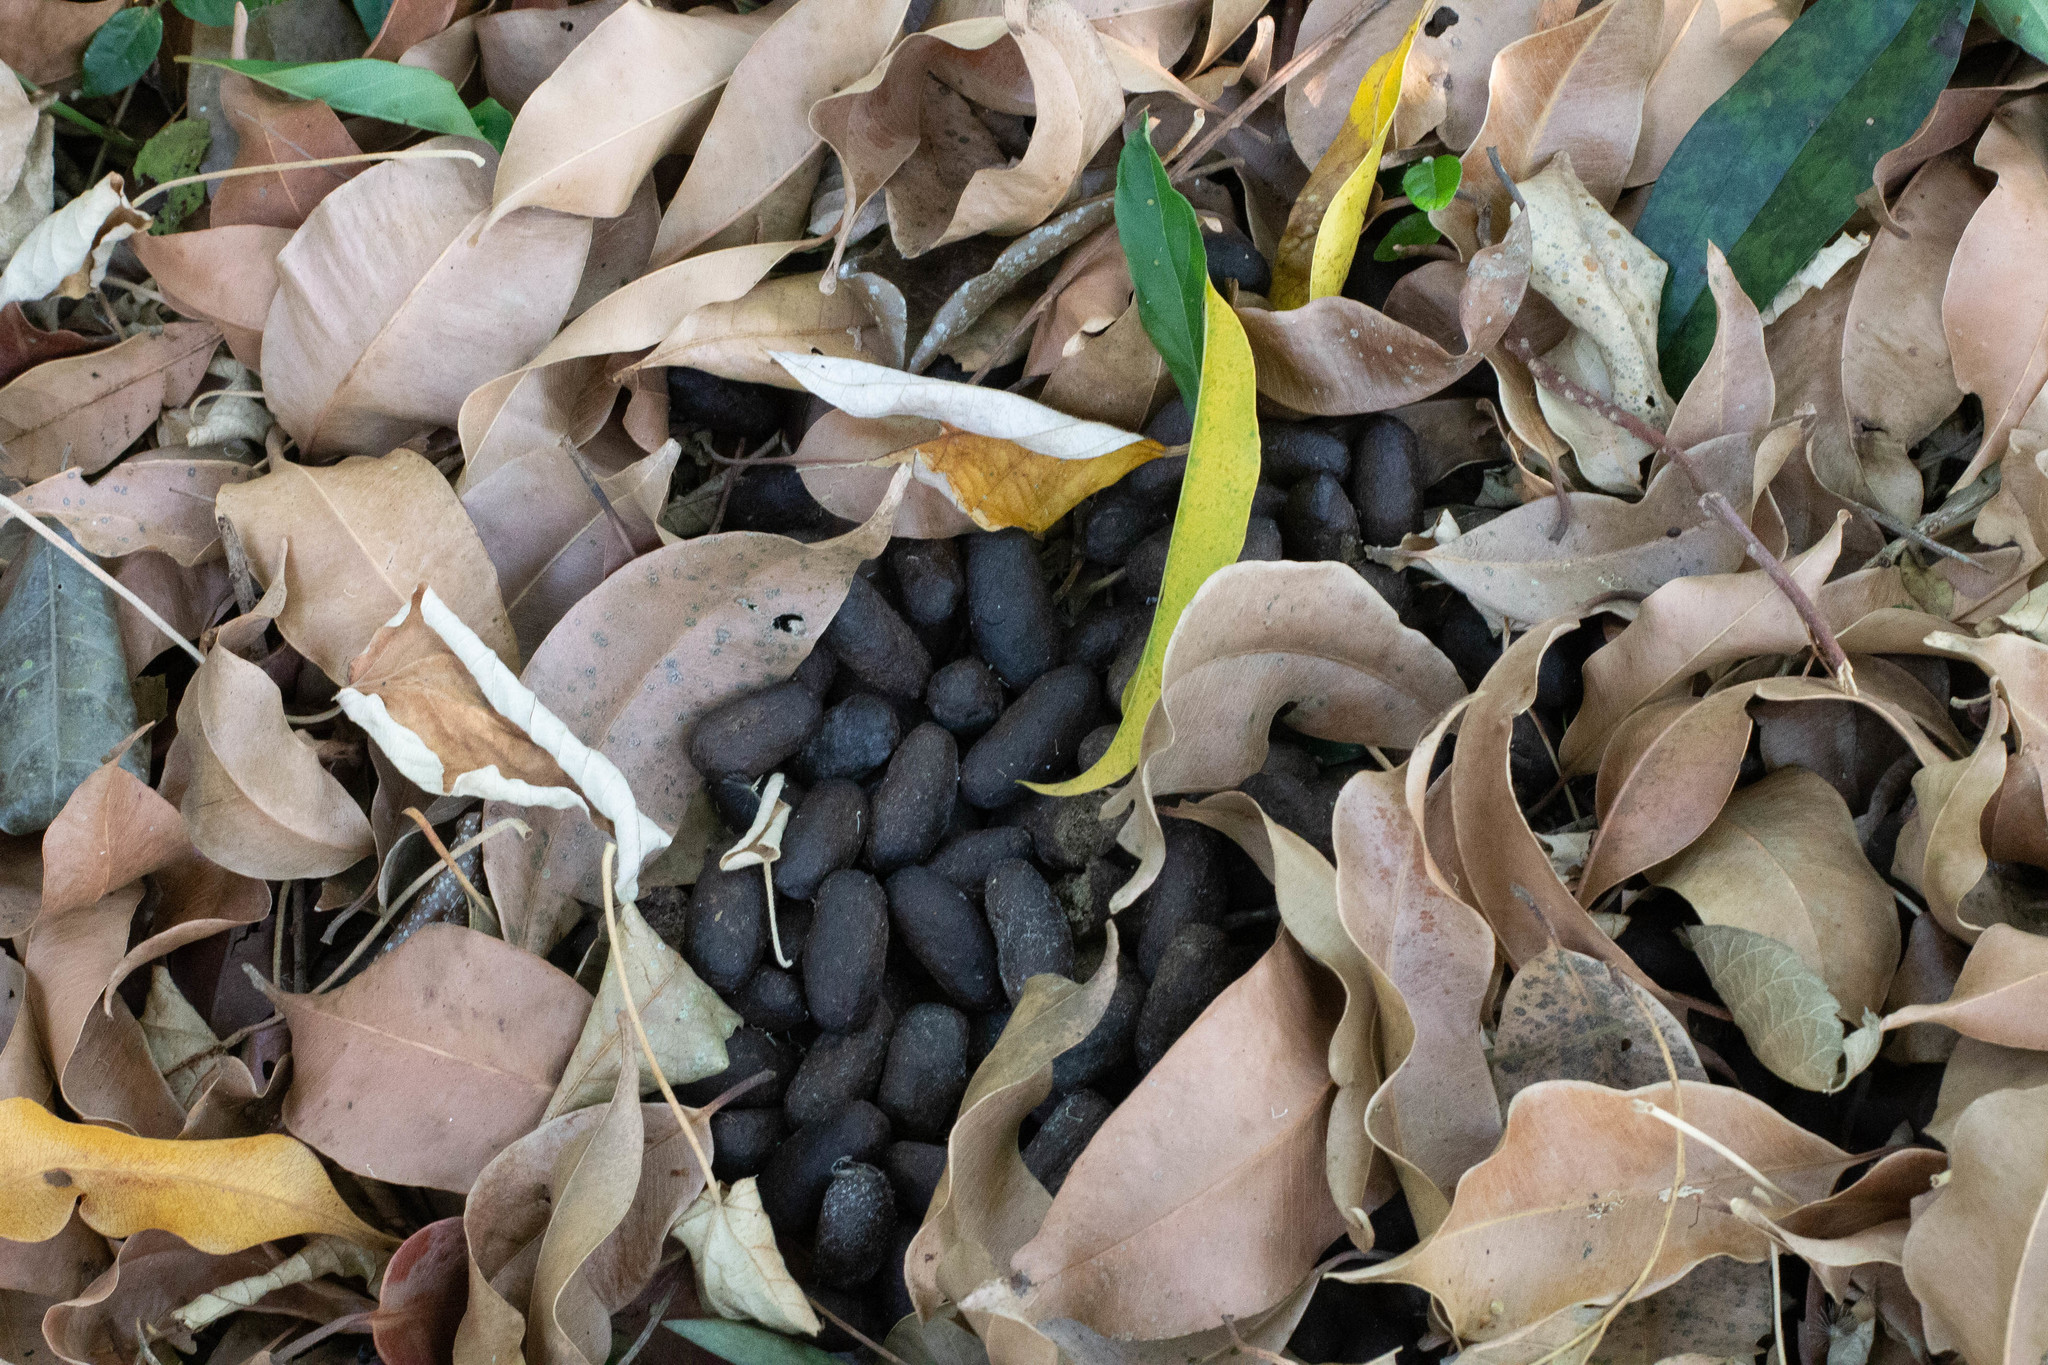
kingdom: Animalia
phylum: Chordata
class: Mammalia
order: Rodentia
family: Caviidae
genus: Hydrochoerus
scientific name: Hydrochoerus hydrochaeris
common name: Capybara
